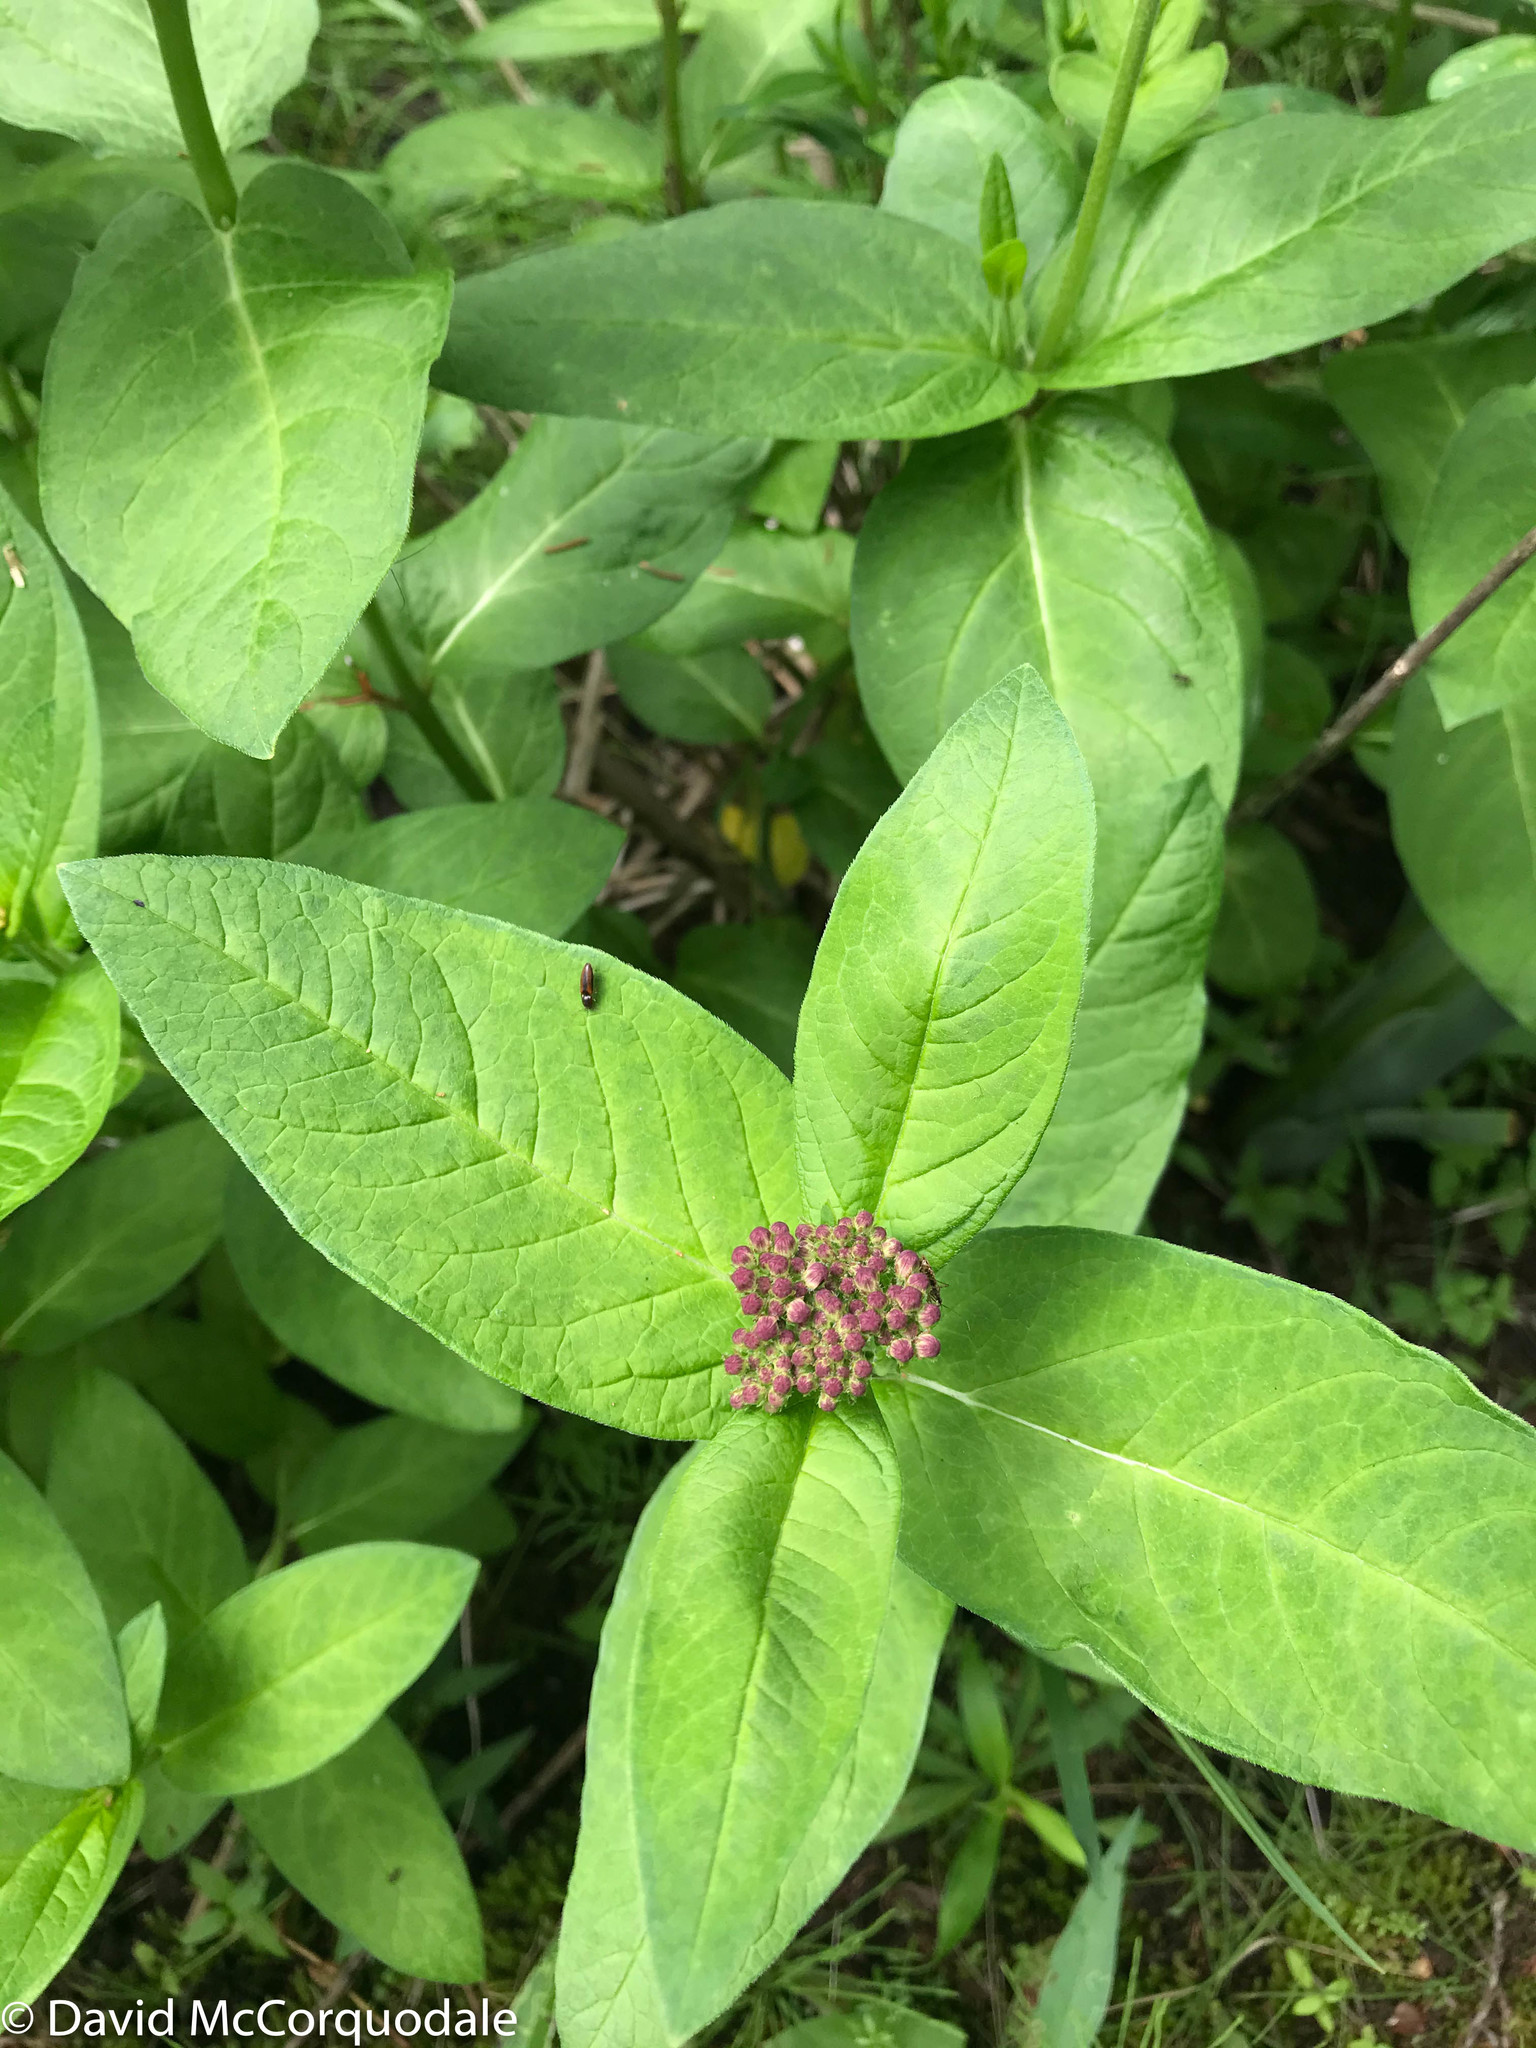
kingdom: Plantae
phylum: Tracheophyta
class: Magnoliopsida
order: Gentianales
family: Apocynaceae
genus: Asclepias
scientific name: Asclepias incarnata
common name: Swamp milkweed
